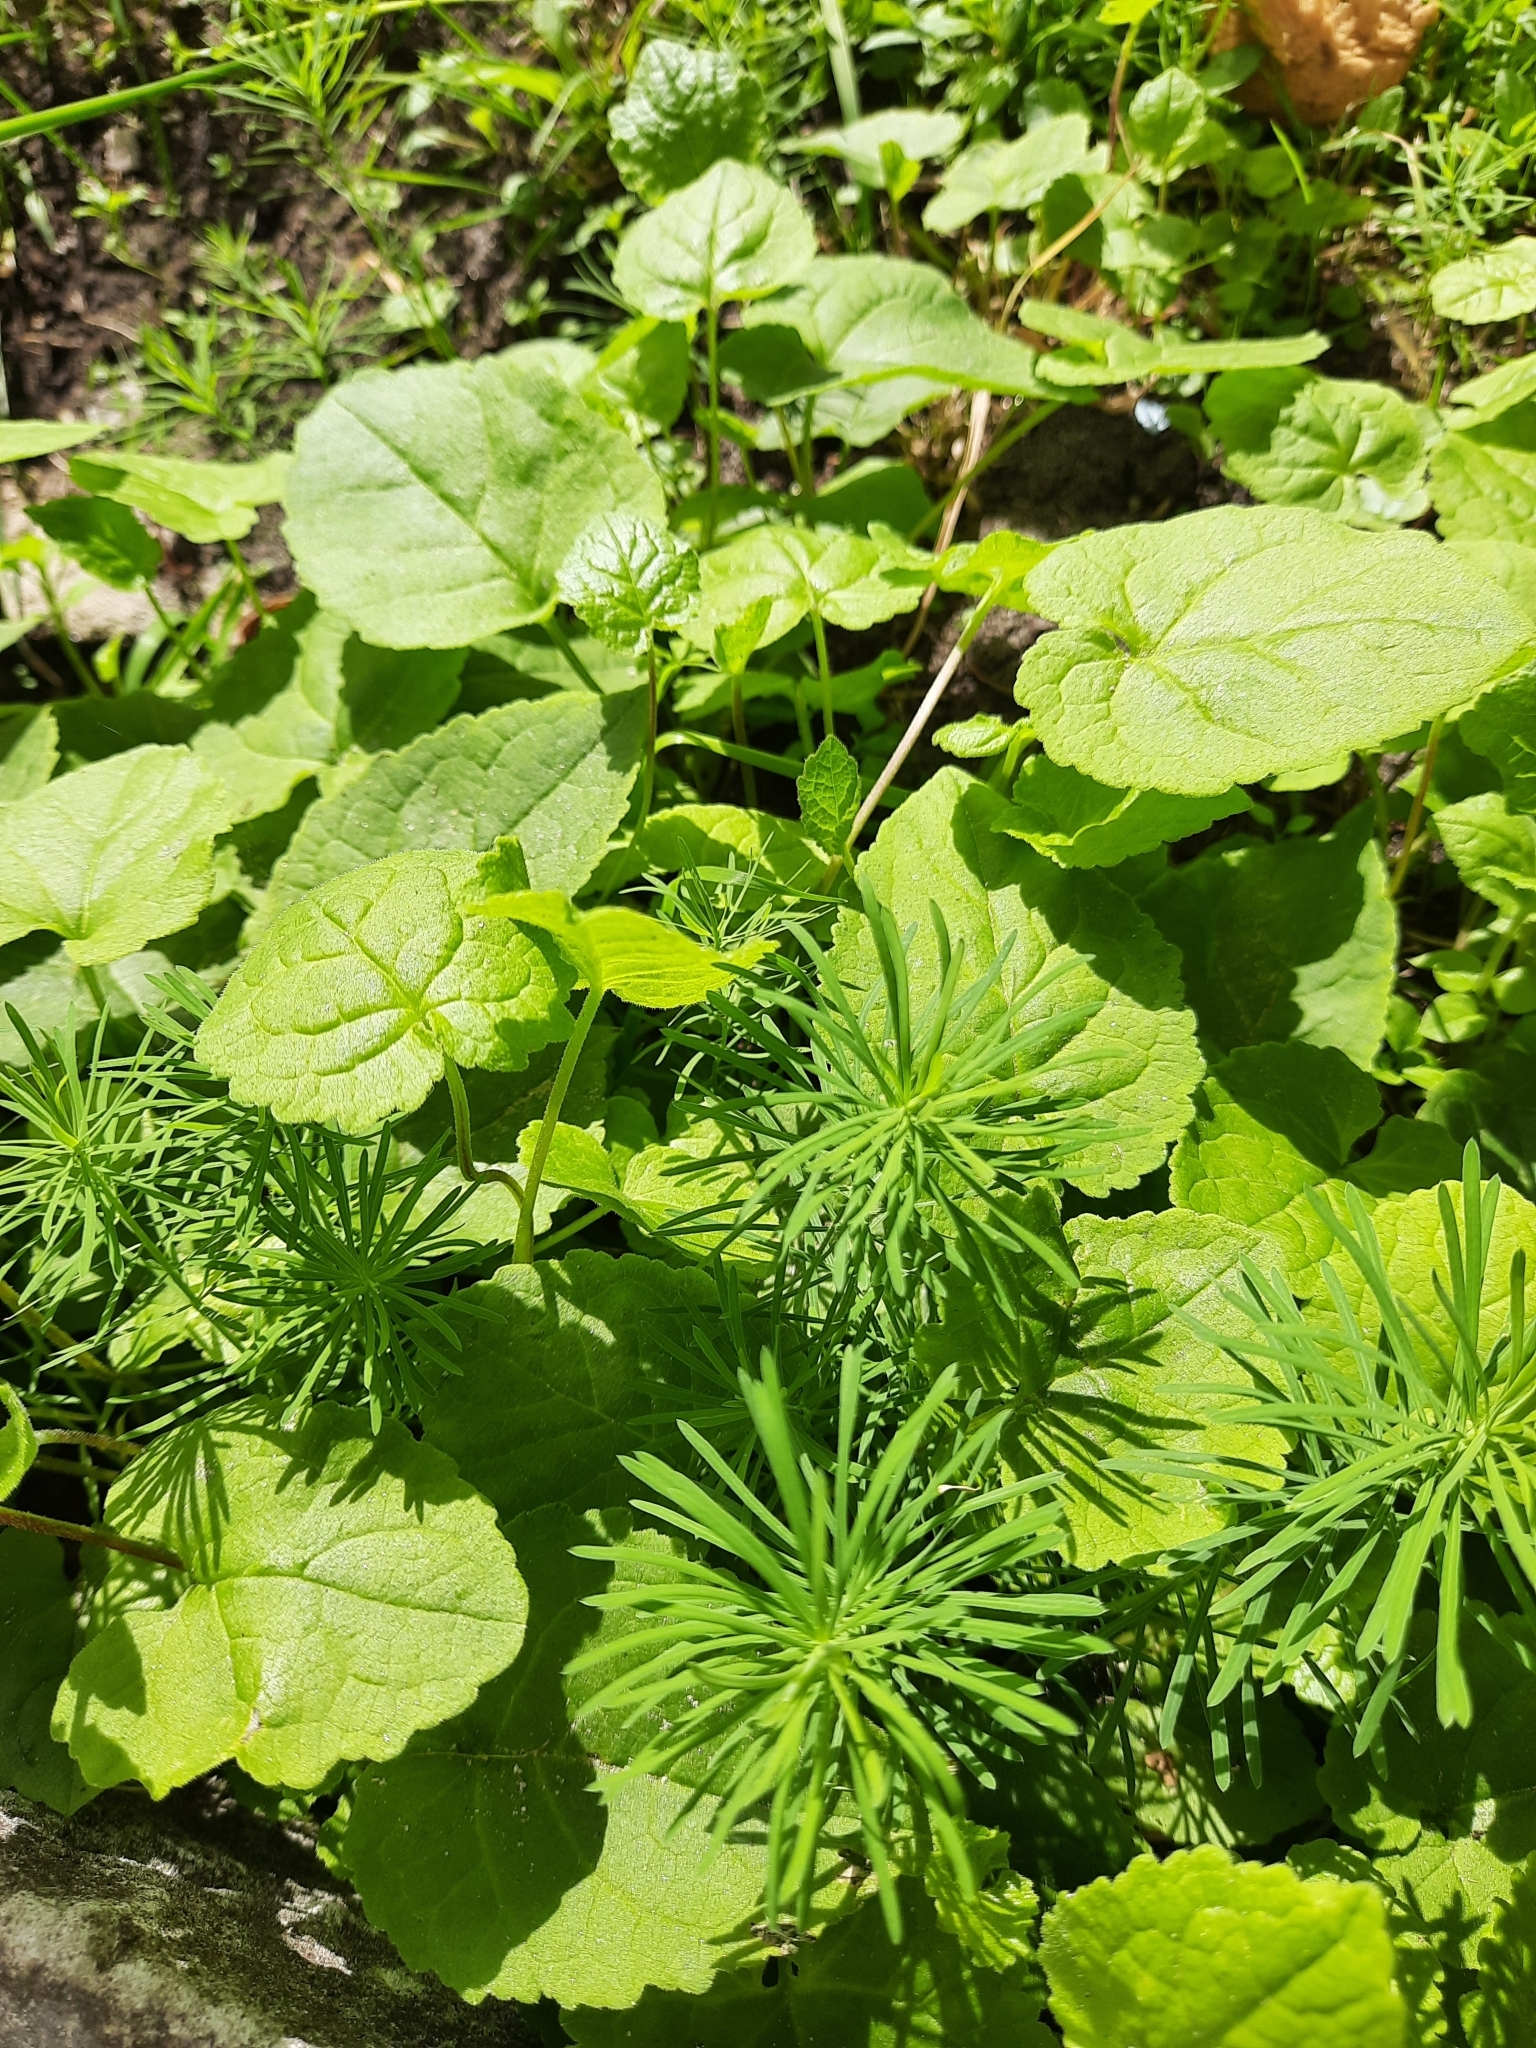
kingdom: Plantae
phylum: Tracheophyta
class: Magnoliopsida
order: Malpighiales
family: Euphorbiaceae
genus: Euphorbia
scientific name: Euphorbia cyparissias
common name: Cypress spurge
